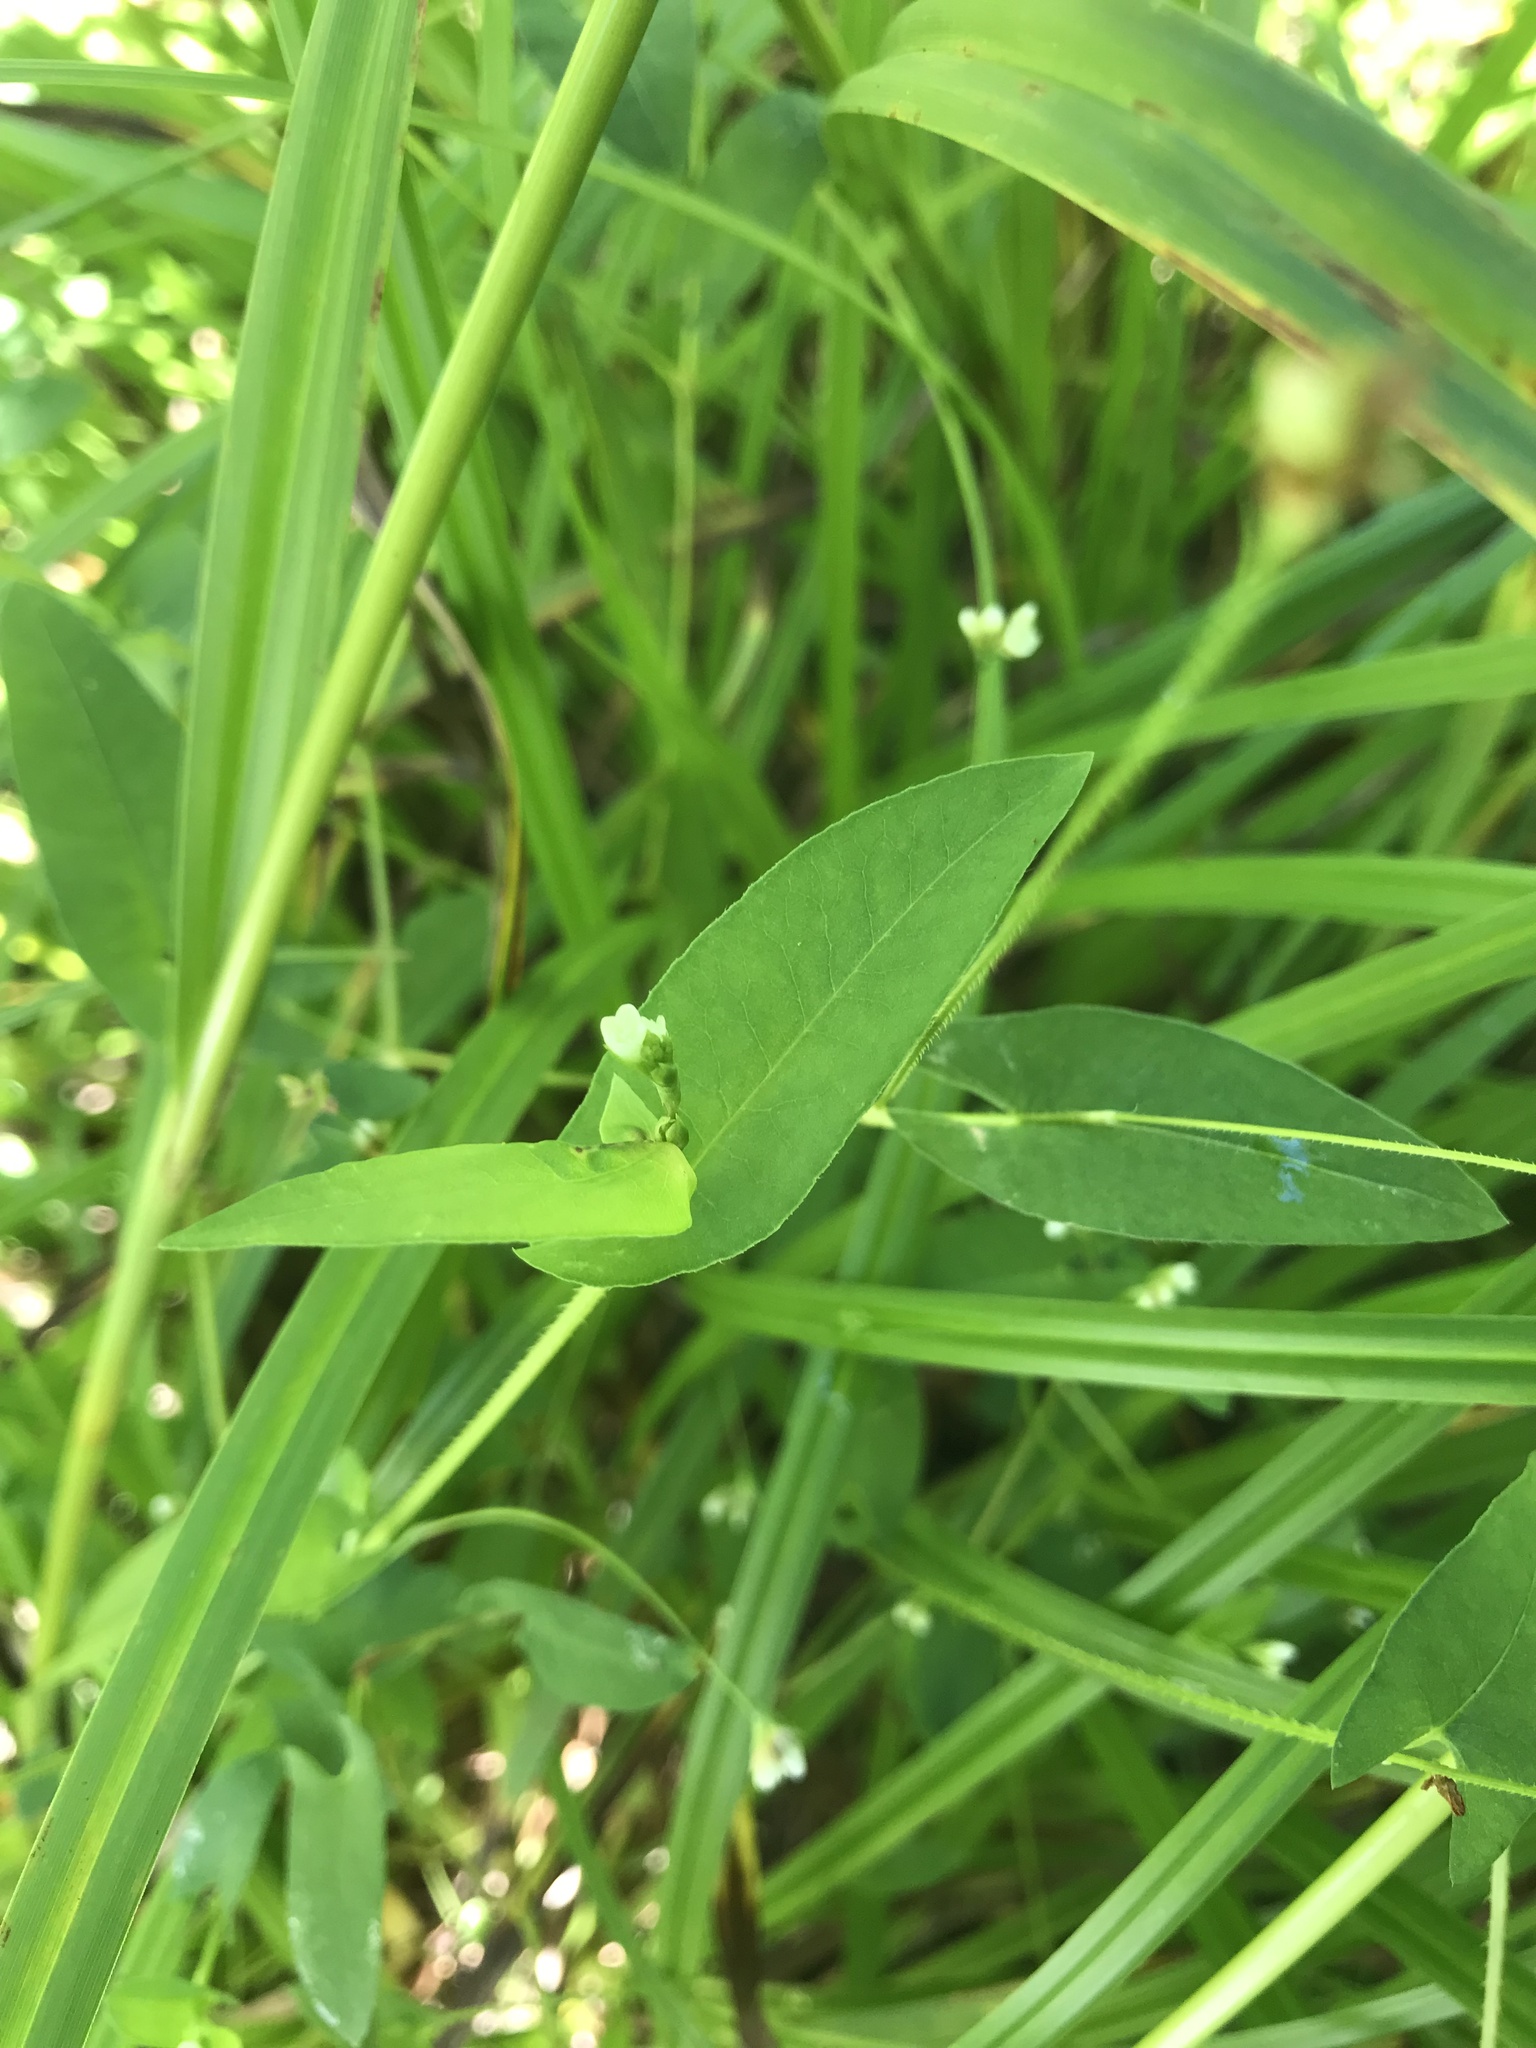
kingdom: Plantae
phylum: Tracheophyta
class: Magnoliopsida
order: Caryophyllales
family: Polygonaceae
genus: Persicaria
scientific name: Persicaria sagittata
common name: American tearthumb
